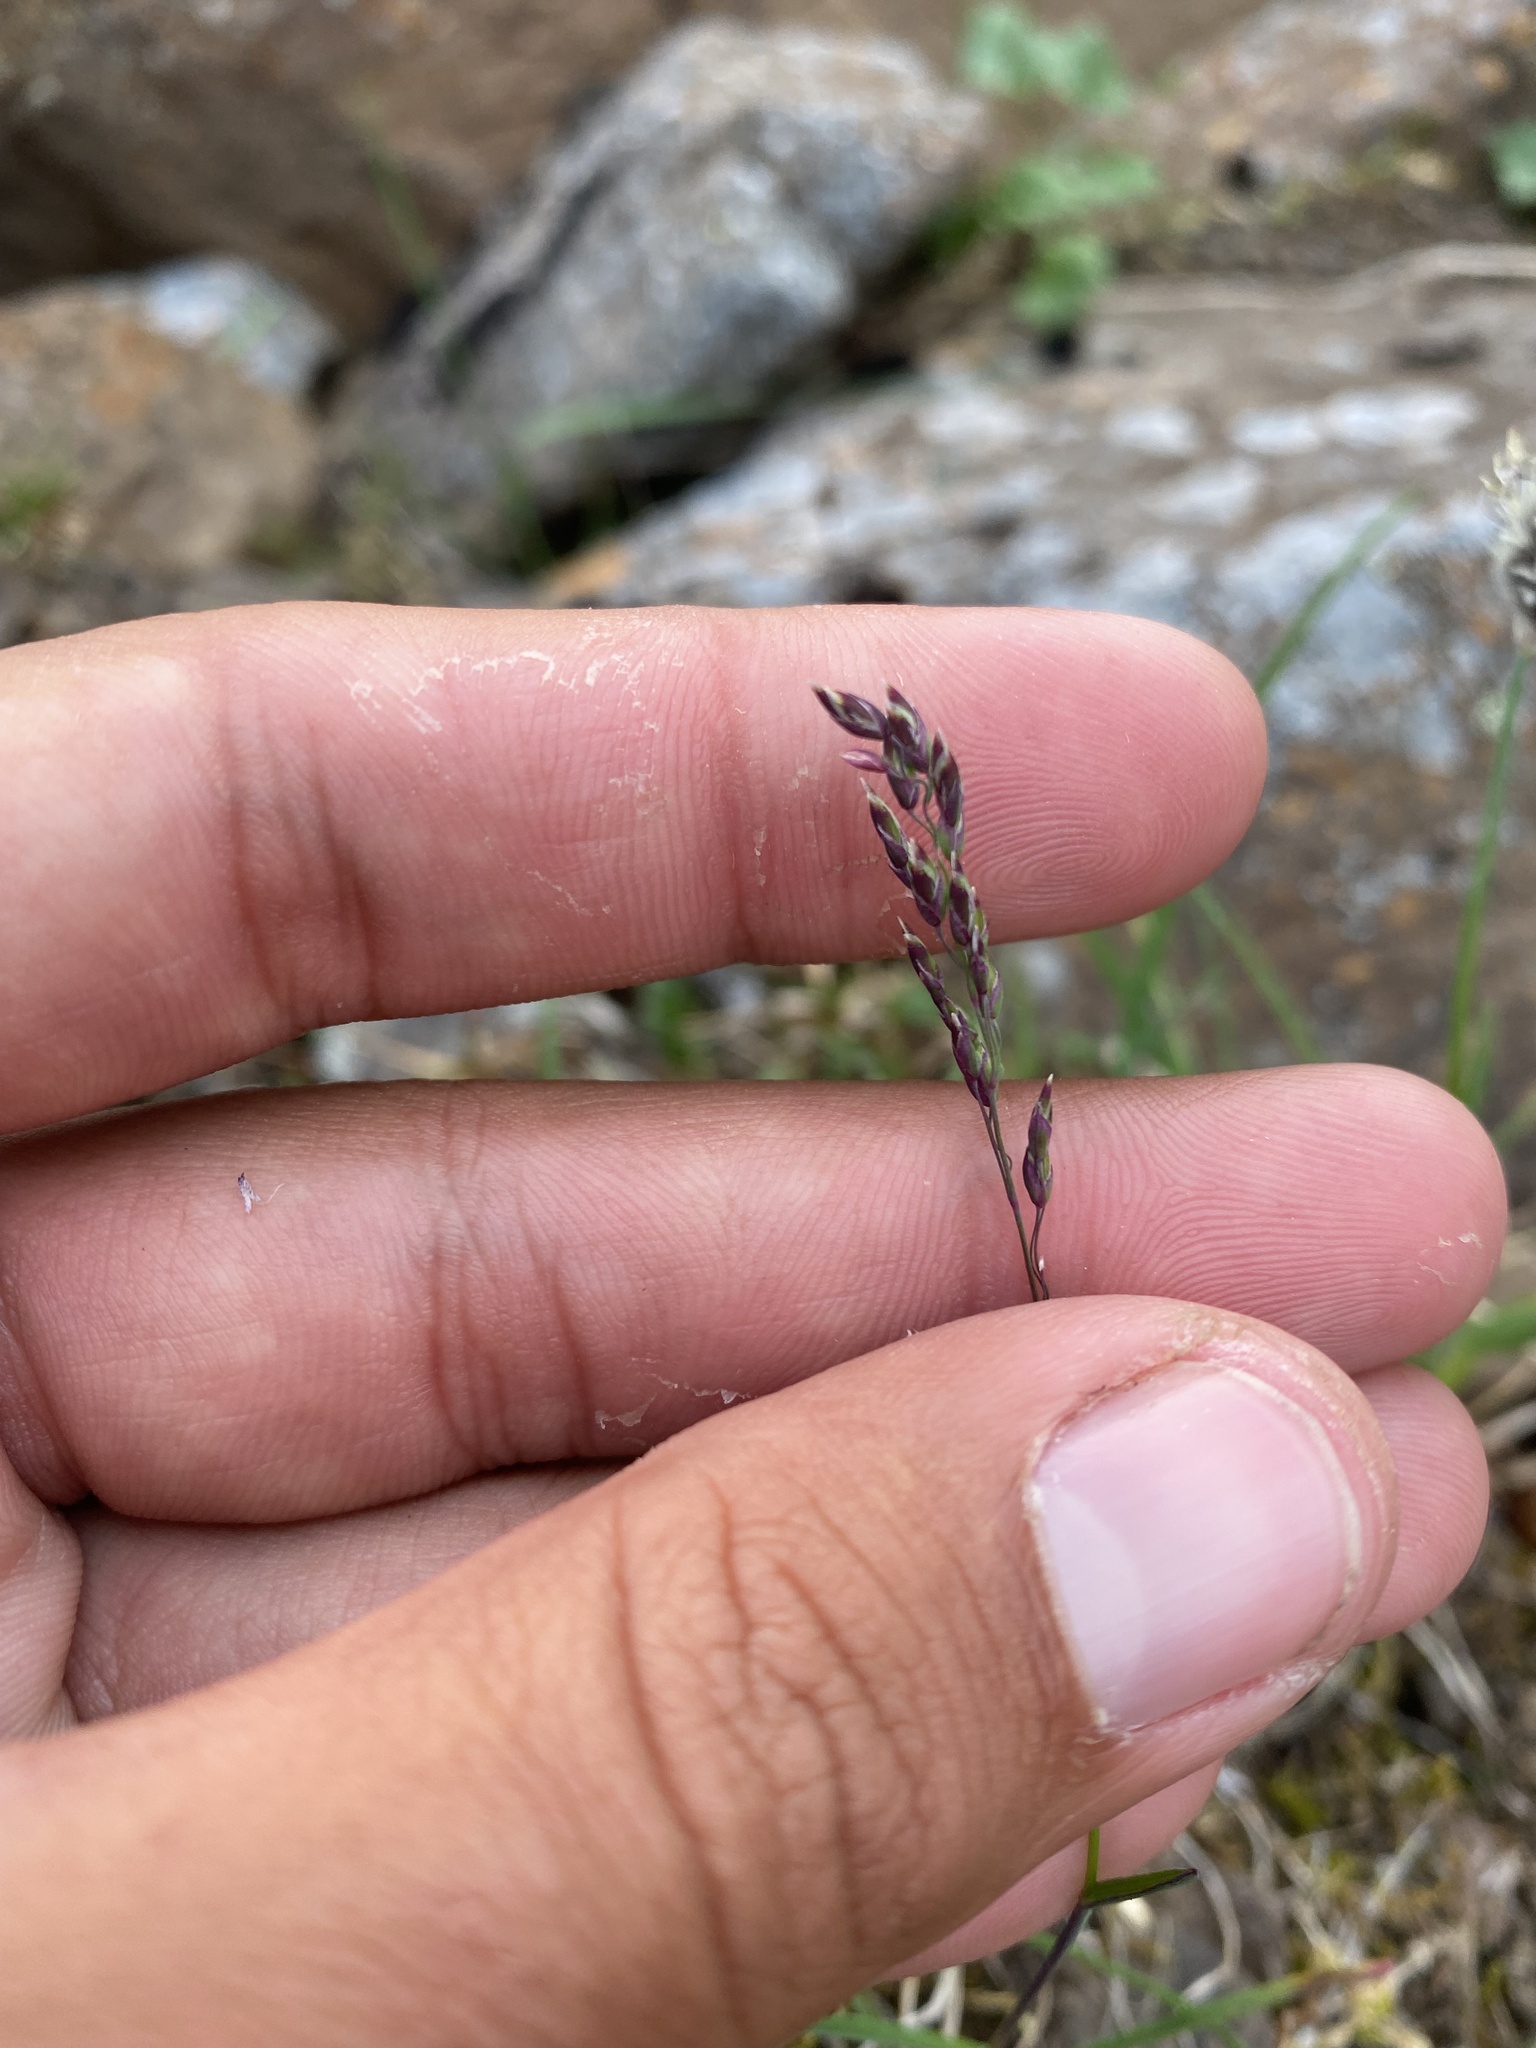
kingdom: Plantae
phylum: Tracheophyta
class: Liliopsida
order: Poales
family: Poaceae
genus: Poa
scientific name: Poa arctica
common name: Arctic bluegrass
